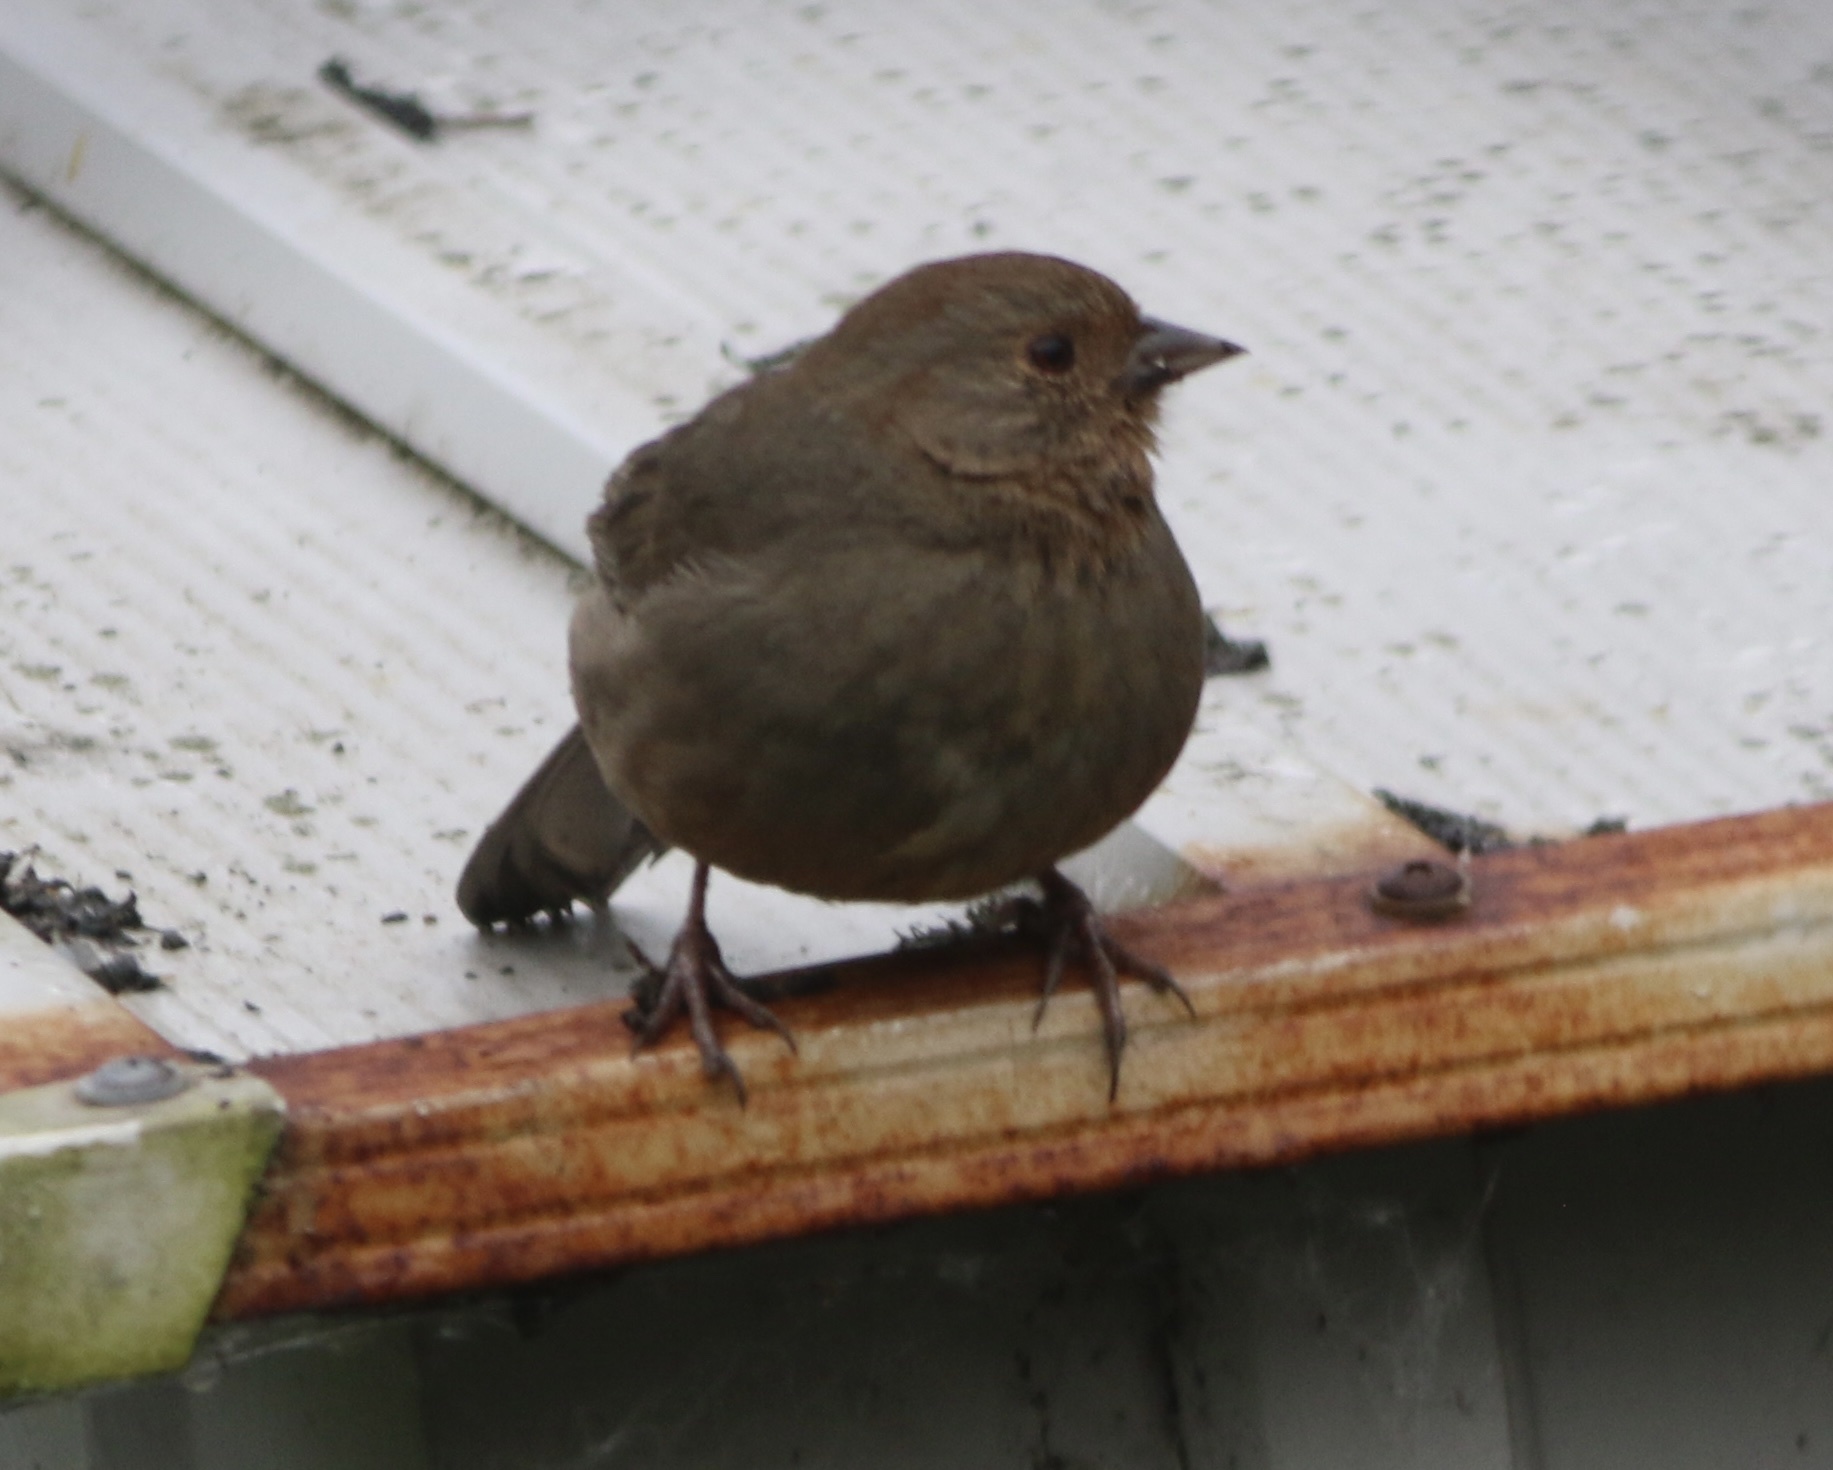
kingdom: Animalia
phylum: Chordata
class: Aves
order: Passeriformes
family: Passerellidae
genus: Melozone
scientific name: Melozone crissalis
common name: California towhee
